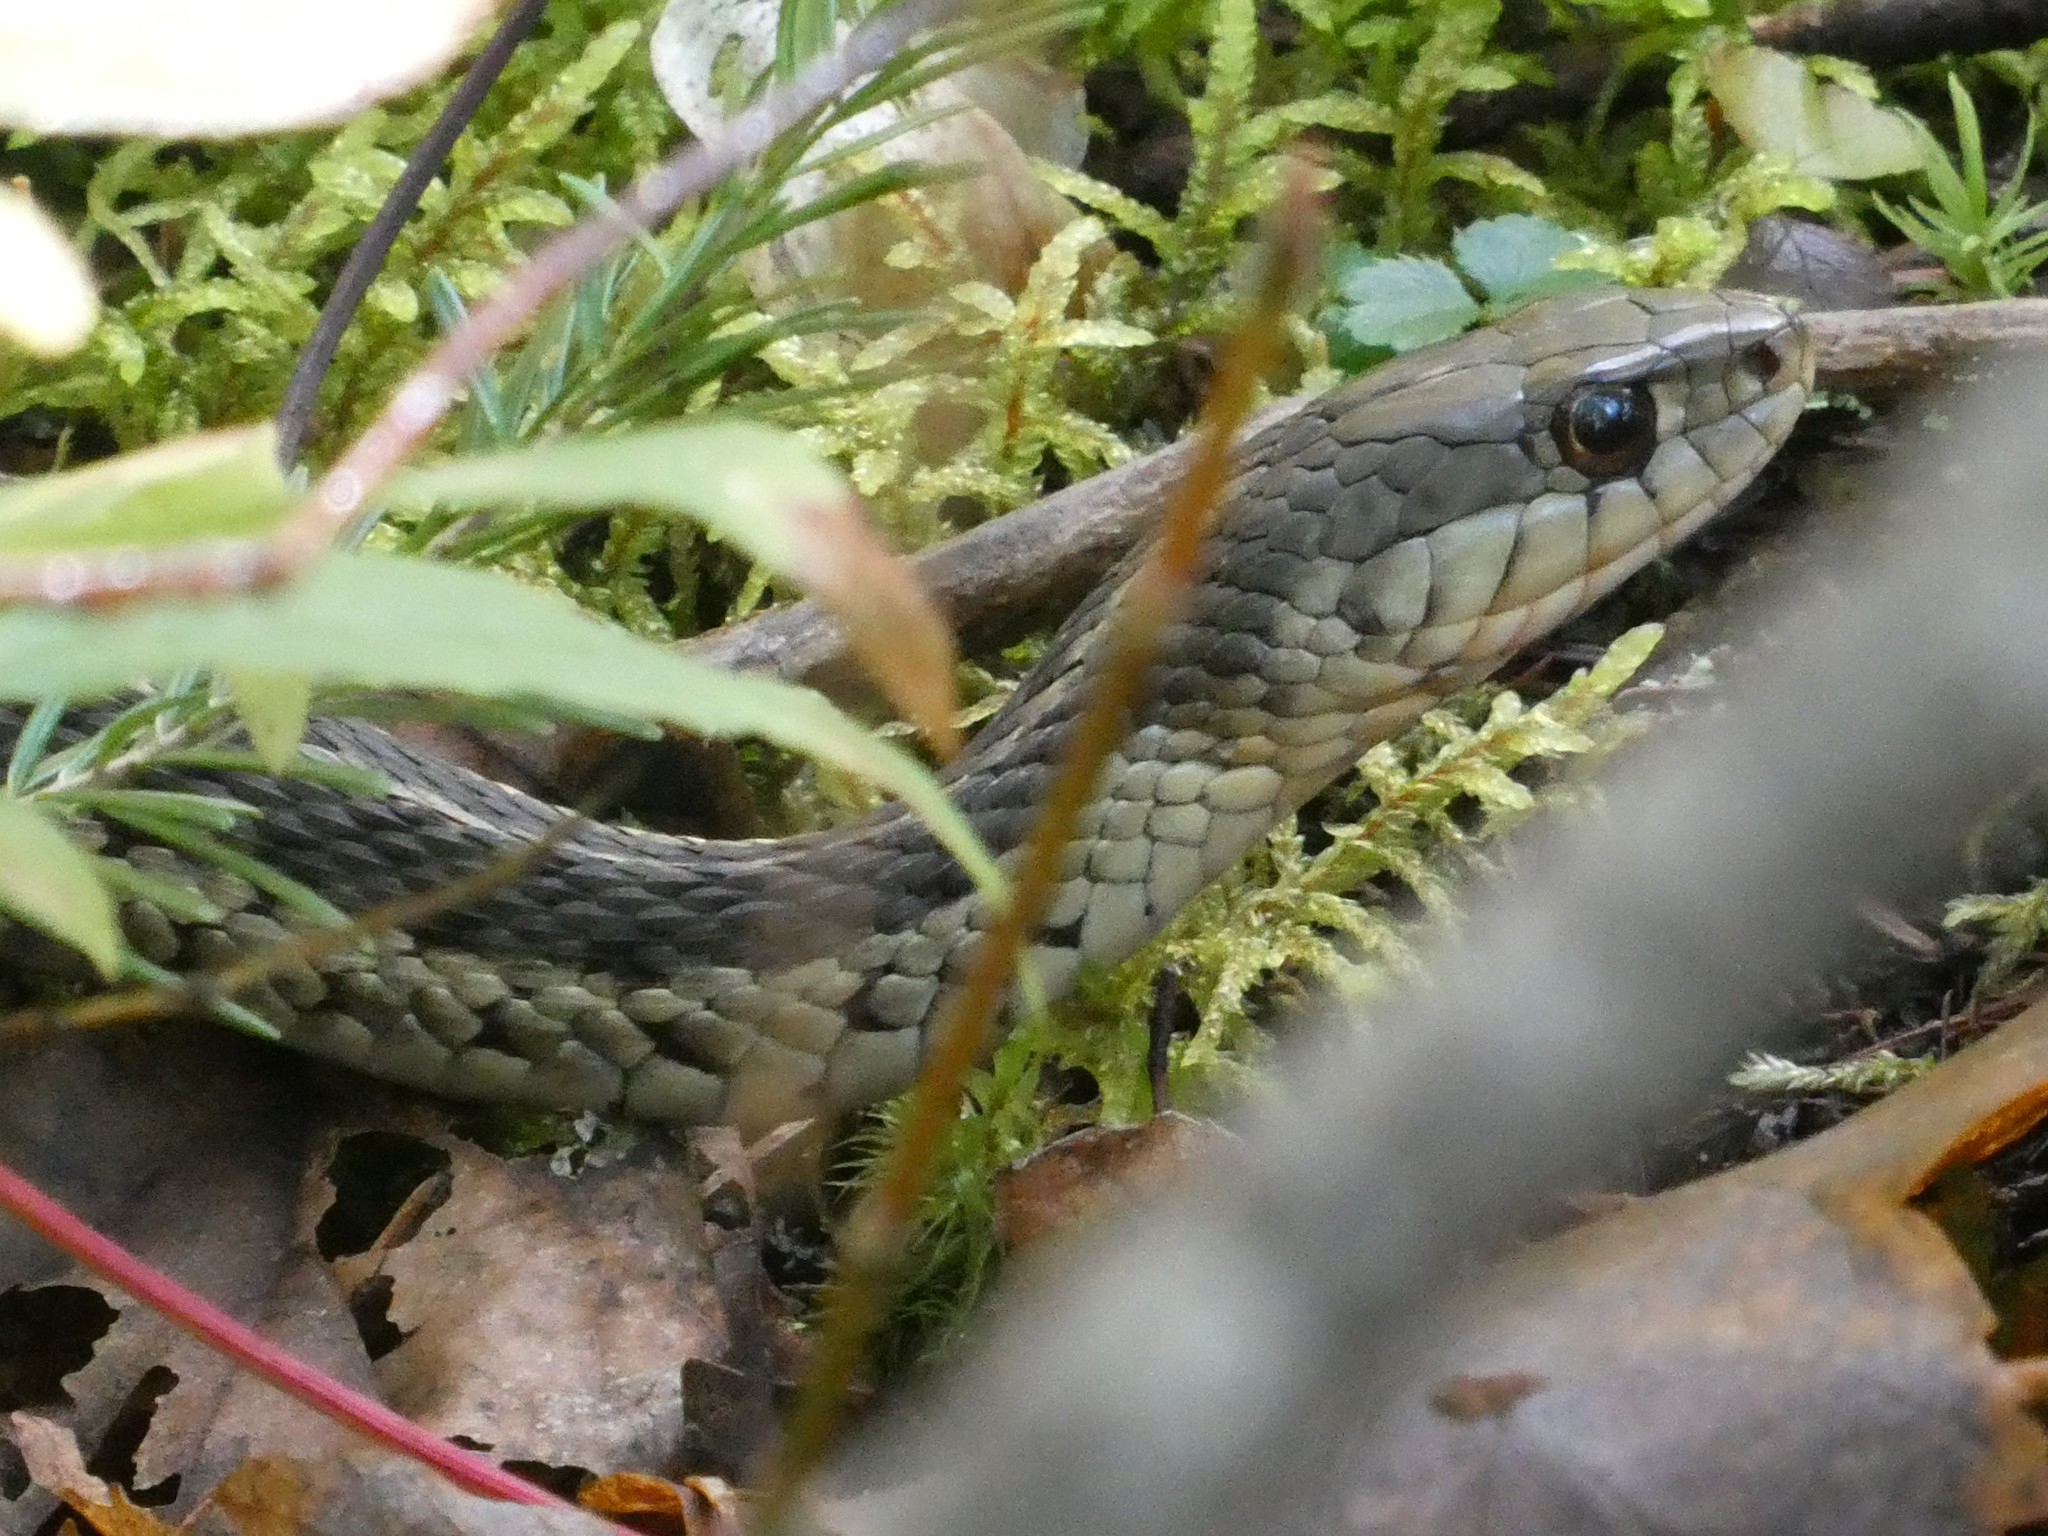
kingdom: Animalia
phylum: Chordata
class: Squamata
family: Colubridae
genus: Thamnophis
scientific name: Thamnophis sirtalis
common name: Common garter snake
